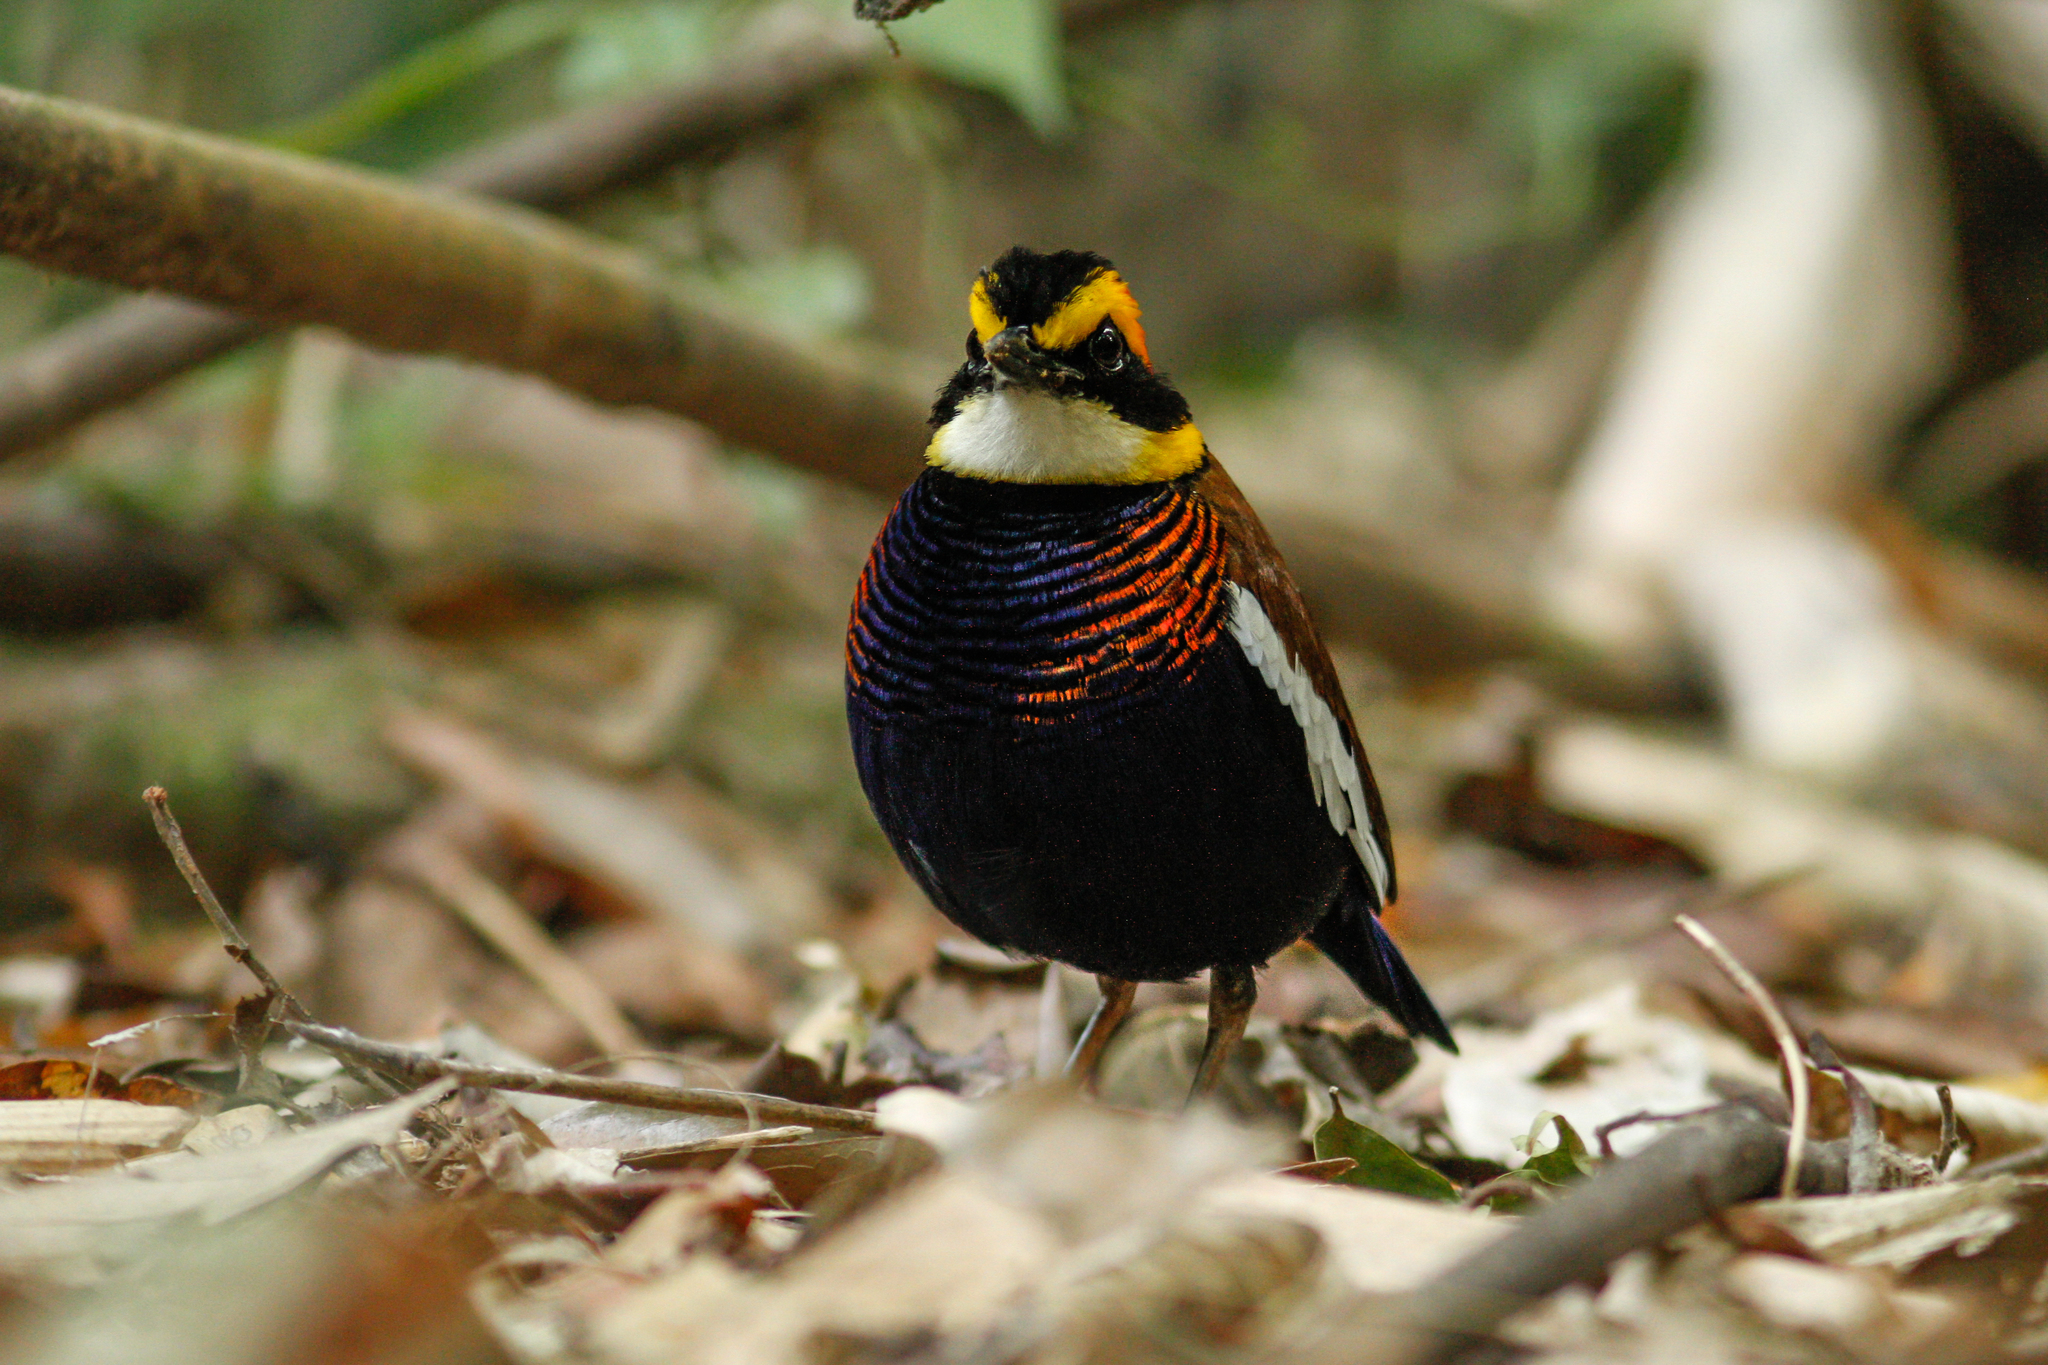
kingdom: Animalia
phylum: Chordata
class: Aves
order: Passeriformes
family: Pittidae
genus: Hydrornis
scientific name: Hydrornis irena
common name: Malayan banded pitta
